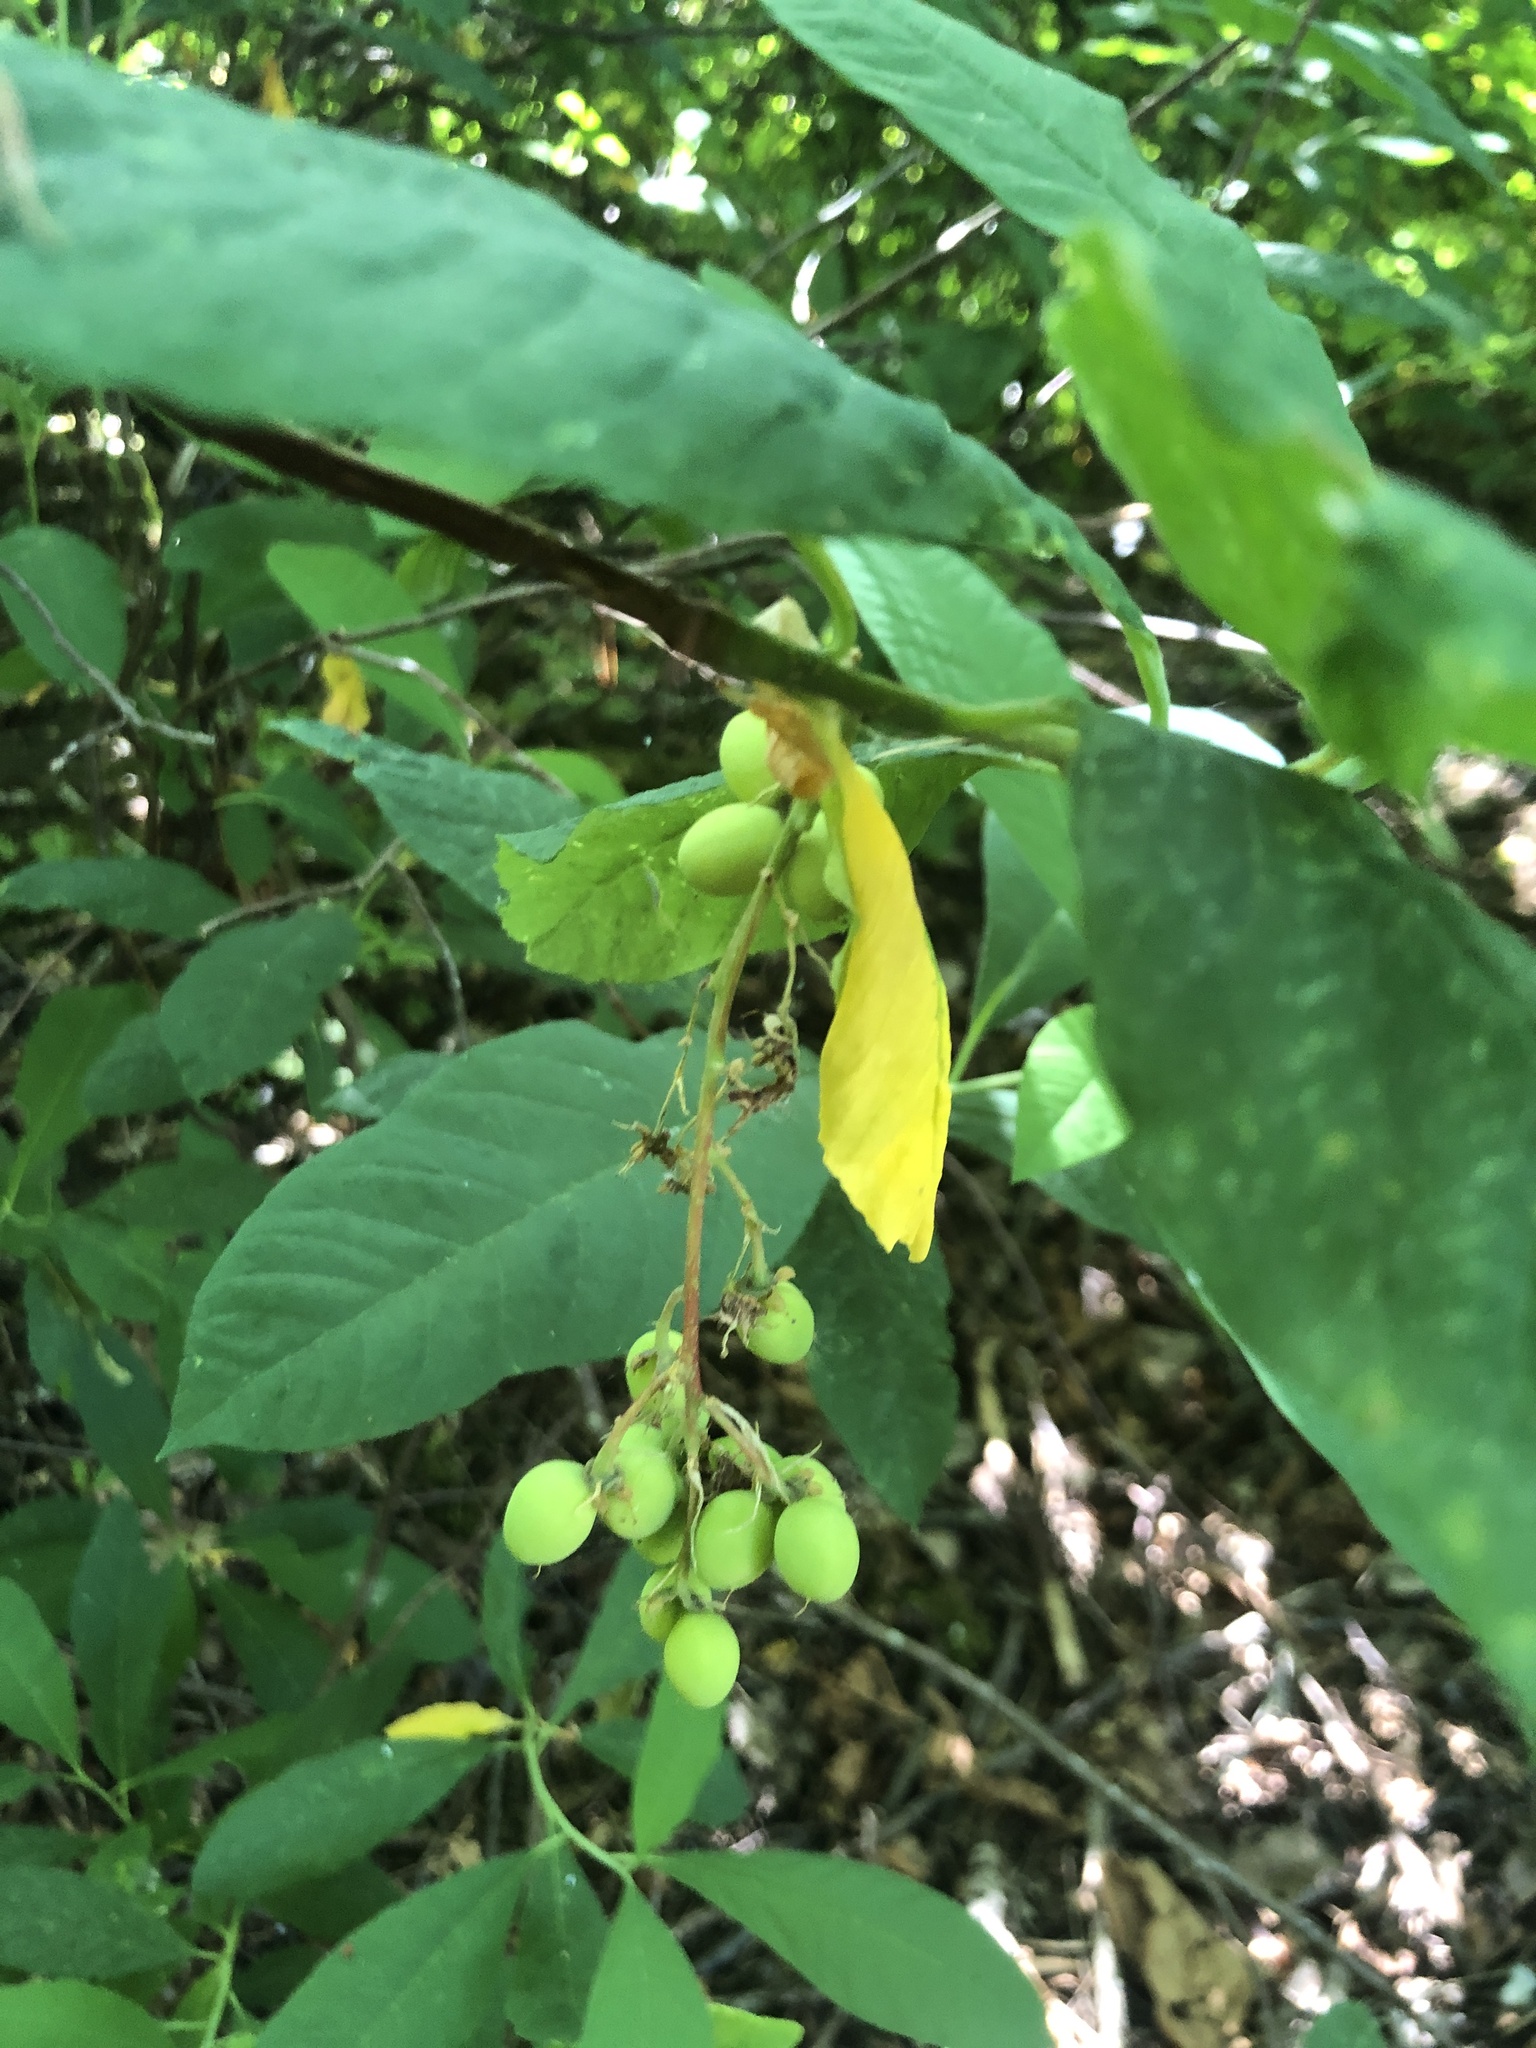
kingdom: Plantae
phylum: Tracheophyta
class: Magnoliopsida
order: Rosales
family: Rosaceae
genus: Oemleria
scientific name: Oemleria cerasiformis
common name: Osoberry
